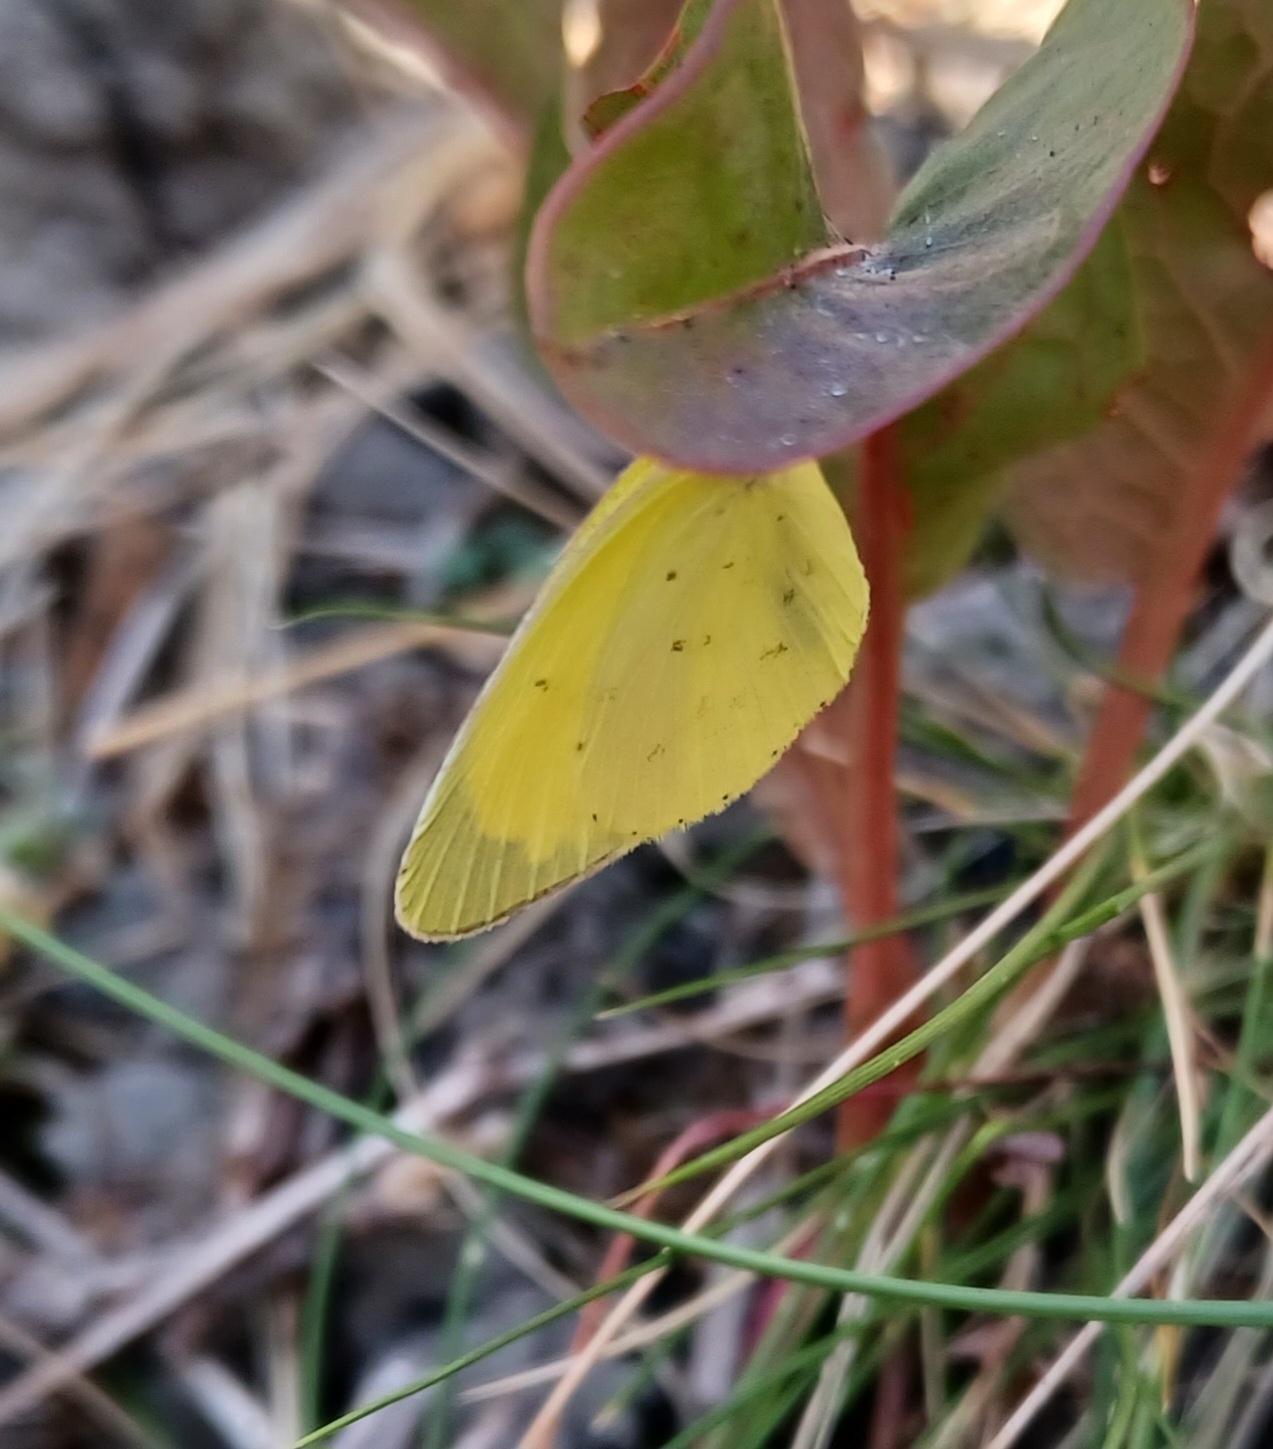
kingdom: Animalia
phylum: Arthropoda
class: Insecta
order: Lepidoptera
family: Pieridae
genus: Eurema
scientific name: Eurema smilax
